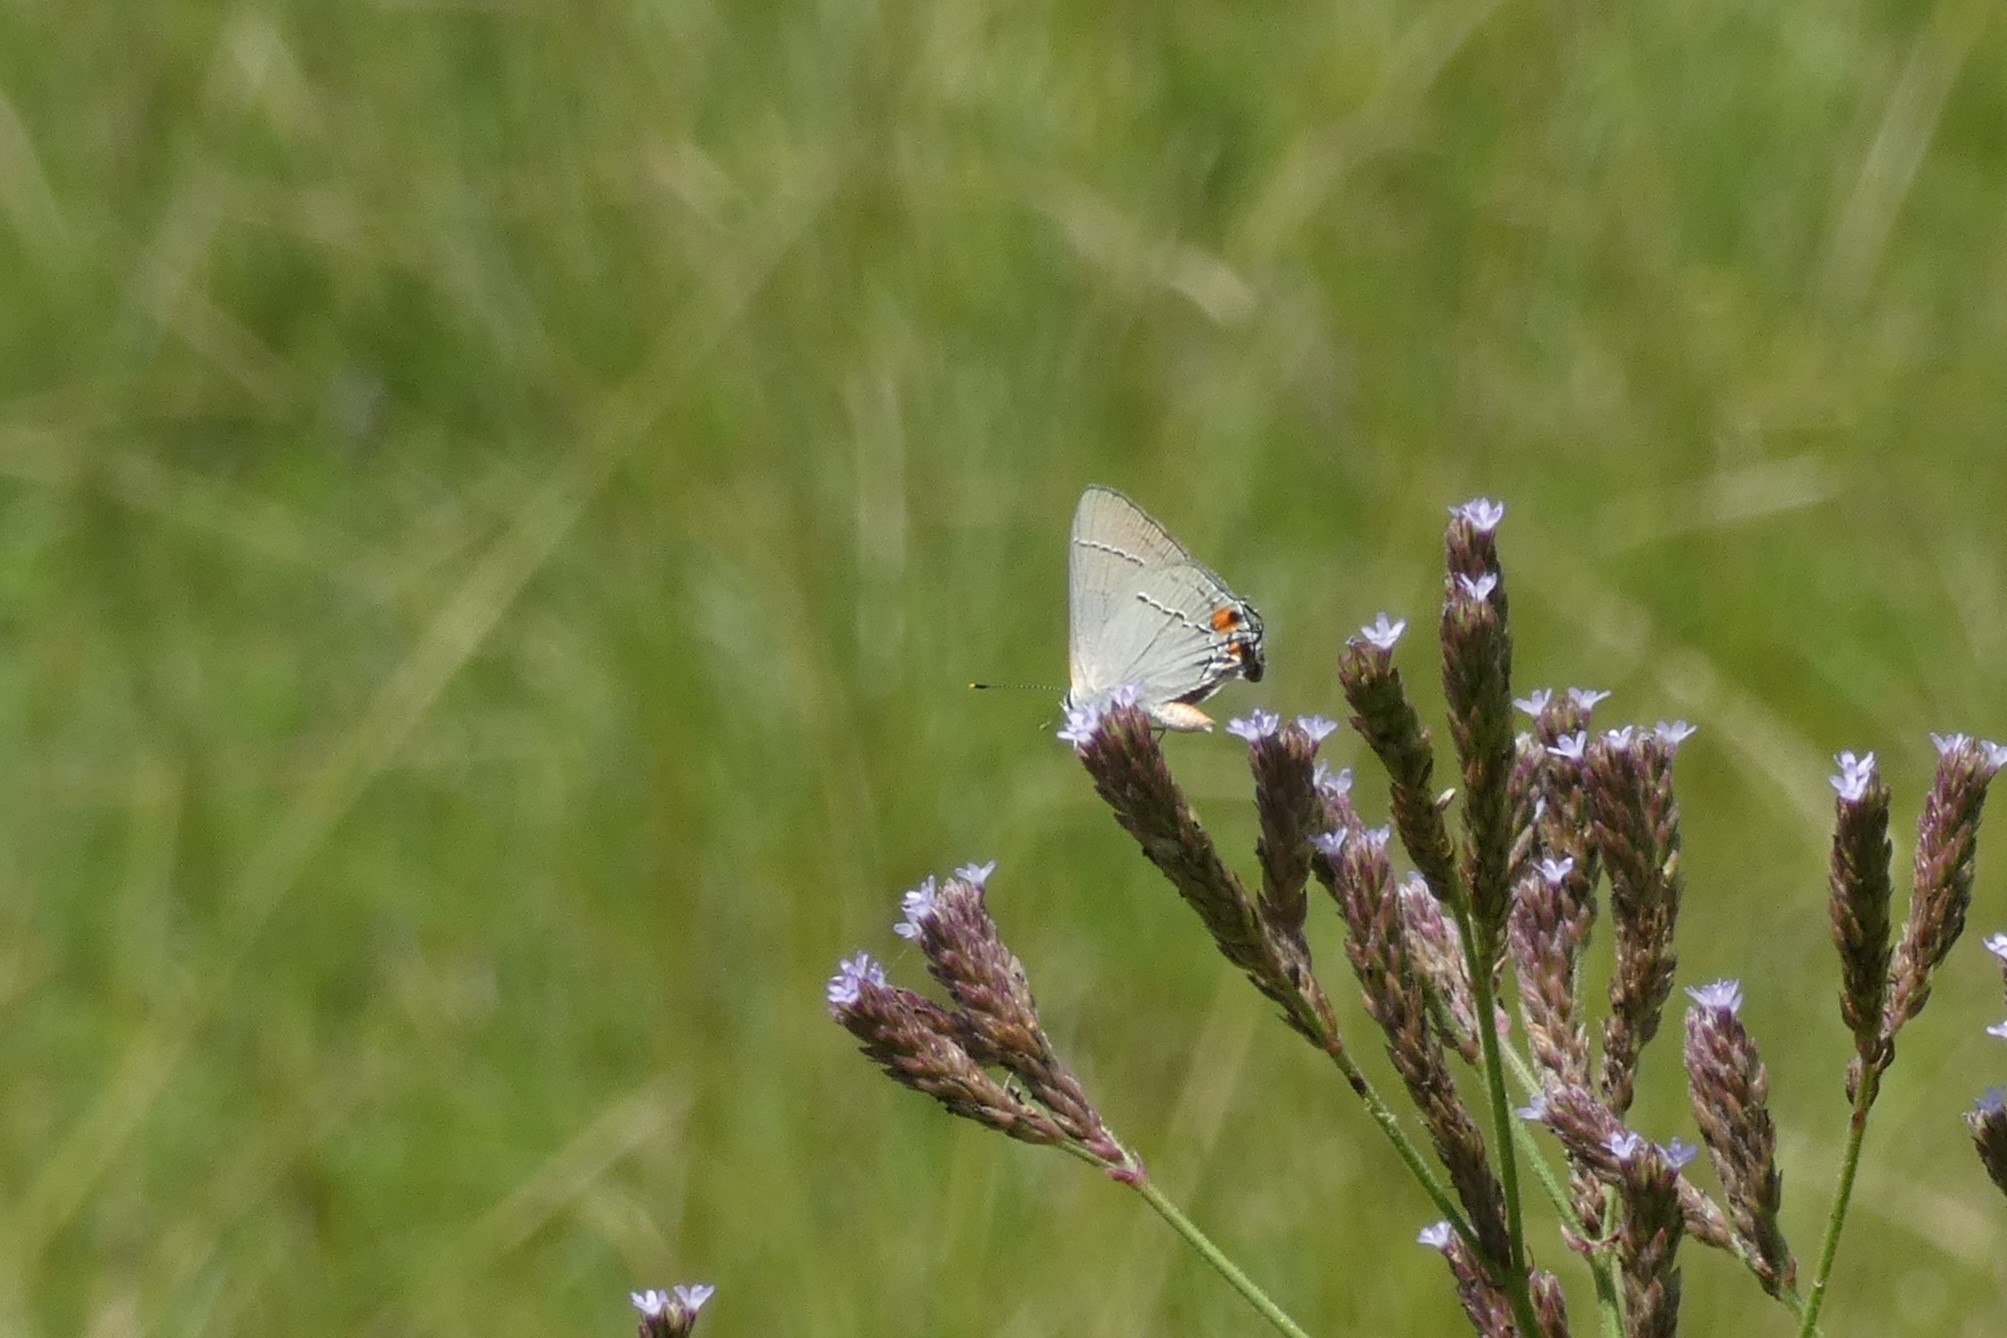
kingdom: Animalia
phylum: Arthropoda
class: Insecta
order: Lepidoptera
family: Lycaenidae
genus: Strymon
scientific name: Strymon melinus
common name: Gray hairstreak
